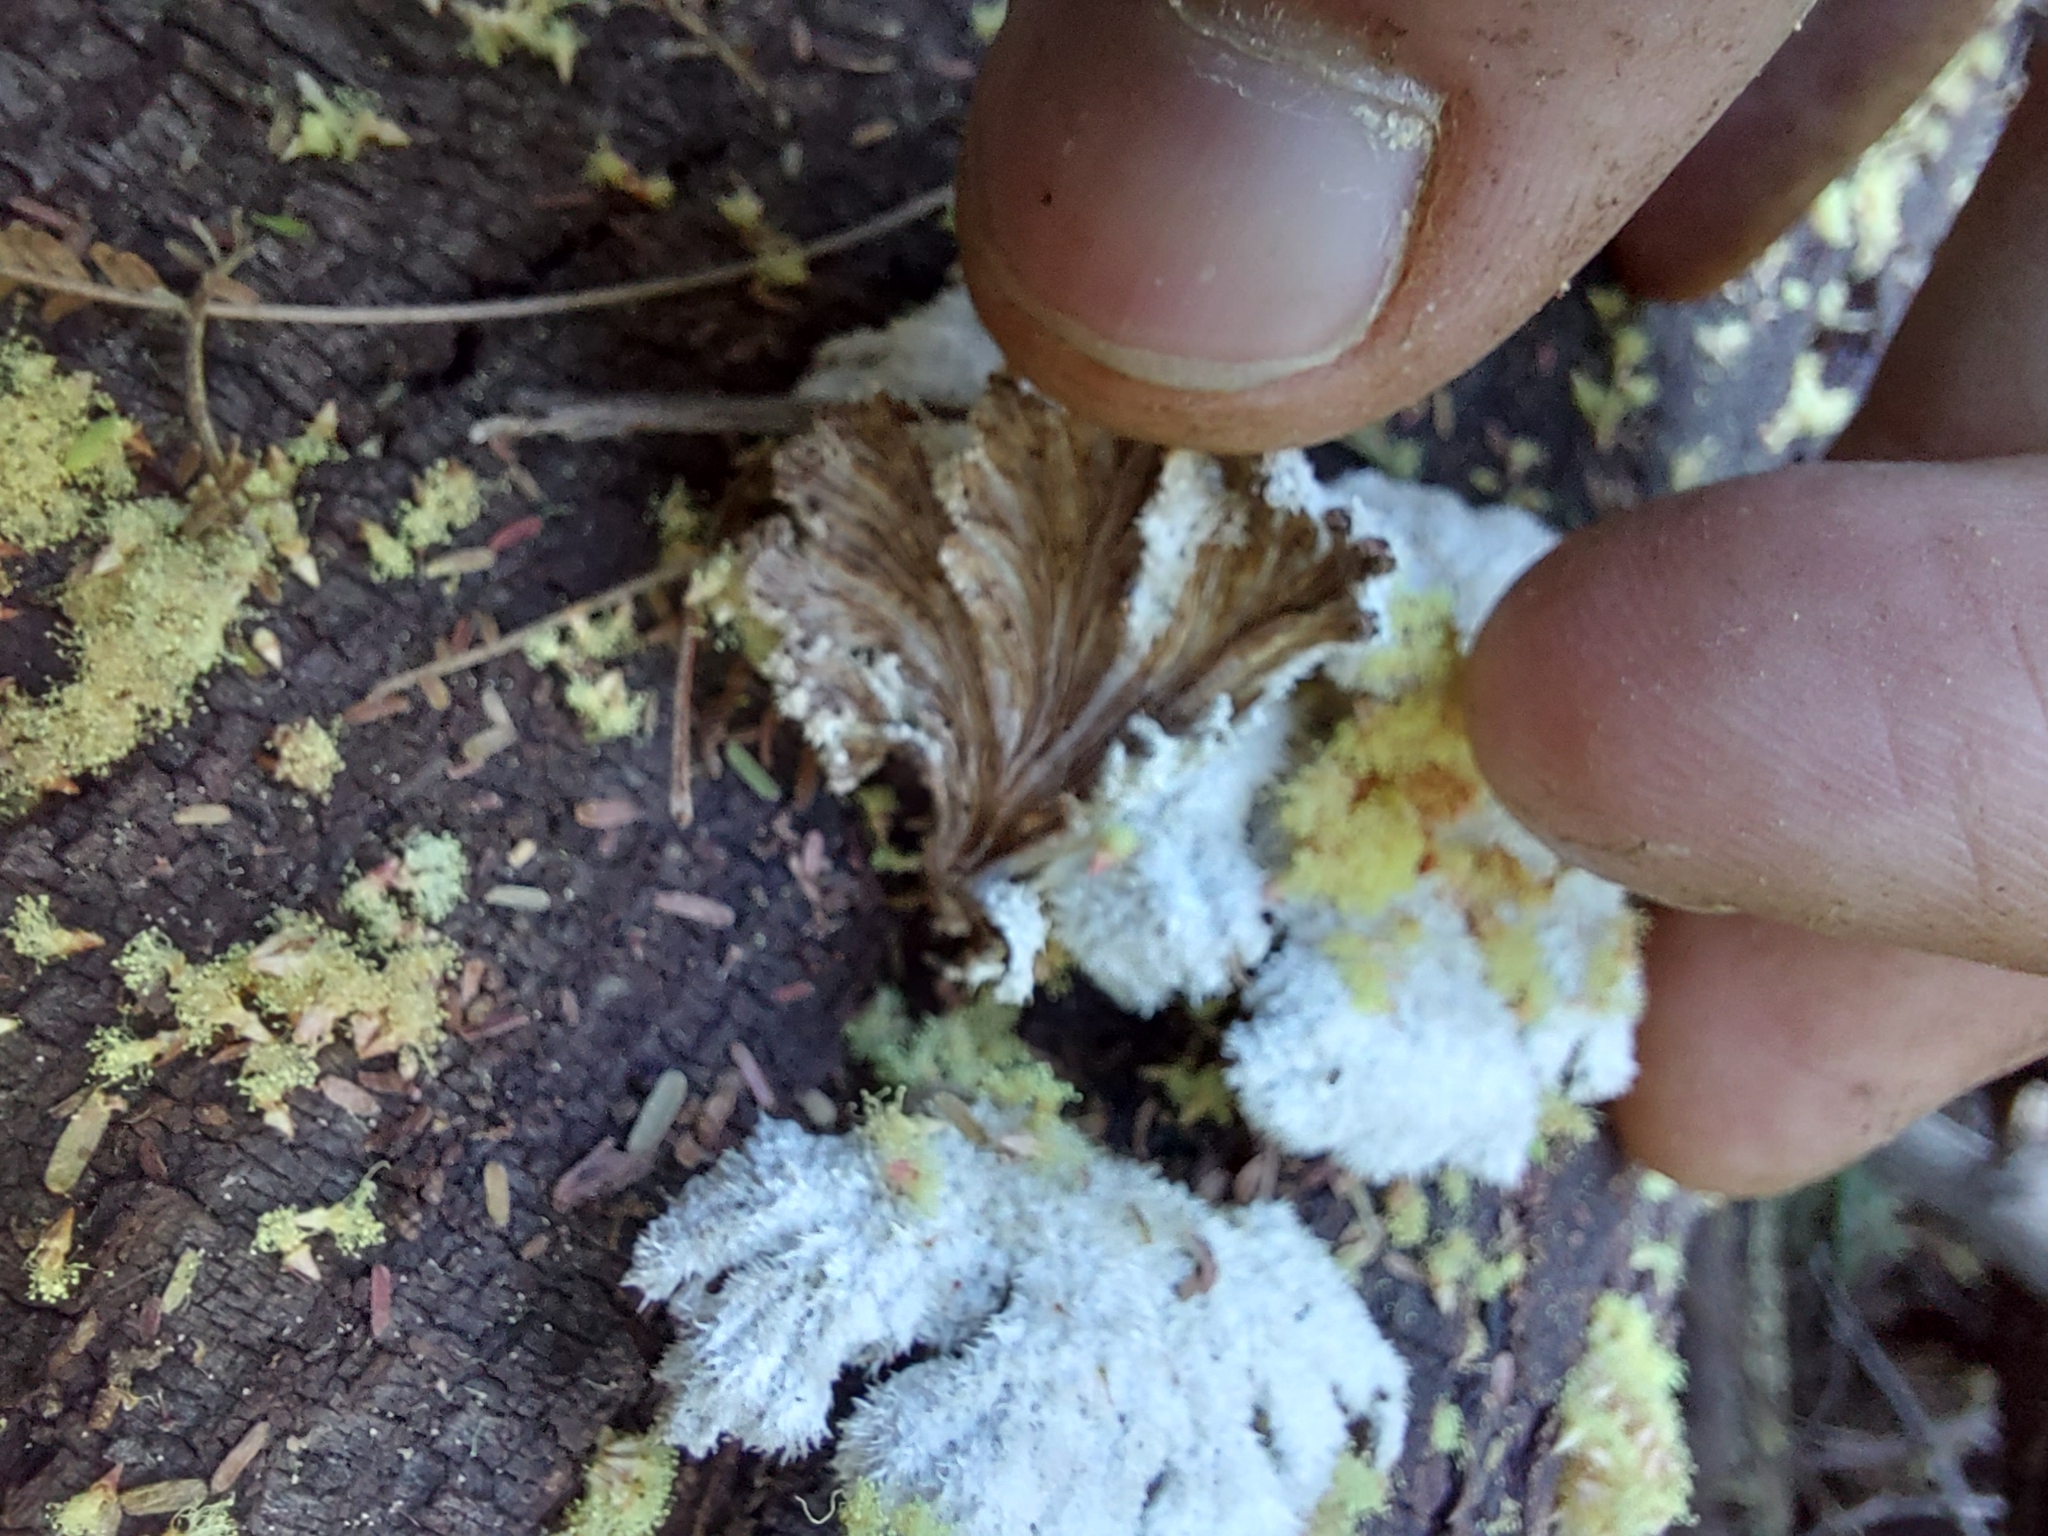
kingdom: Fungi
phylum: Basidiomycota
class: Agaricomycetes
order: Agaricales
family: Schizophyllaceae
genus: Schizophyllum
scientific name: Schizophyllum commune
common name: Common porecrust
